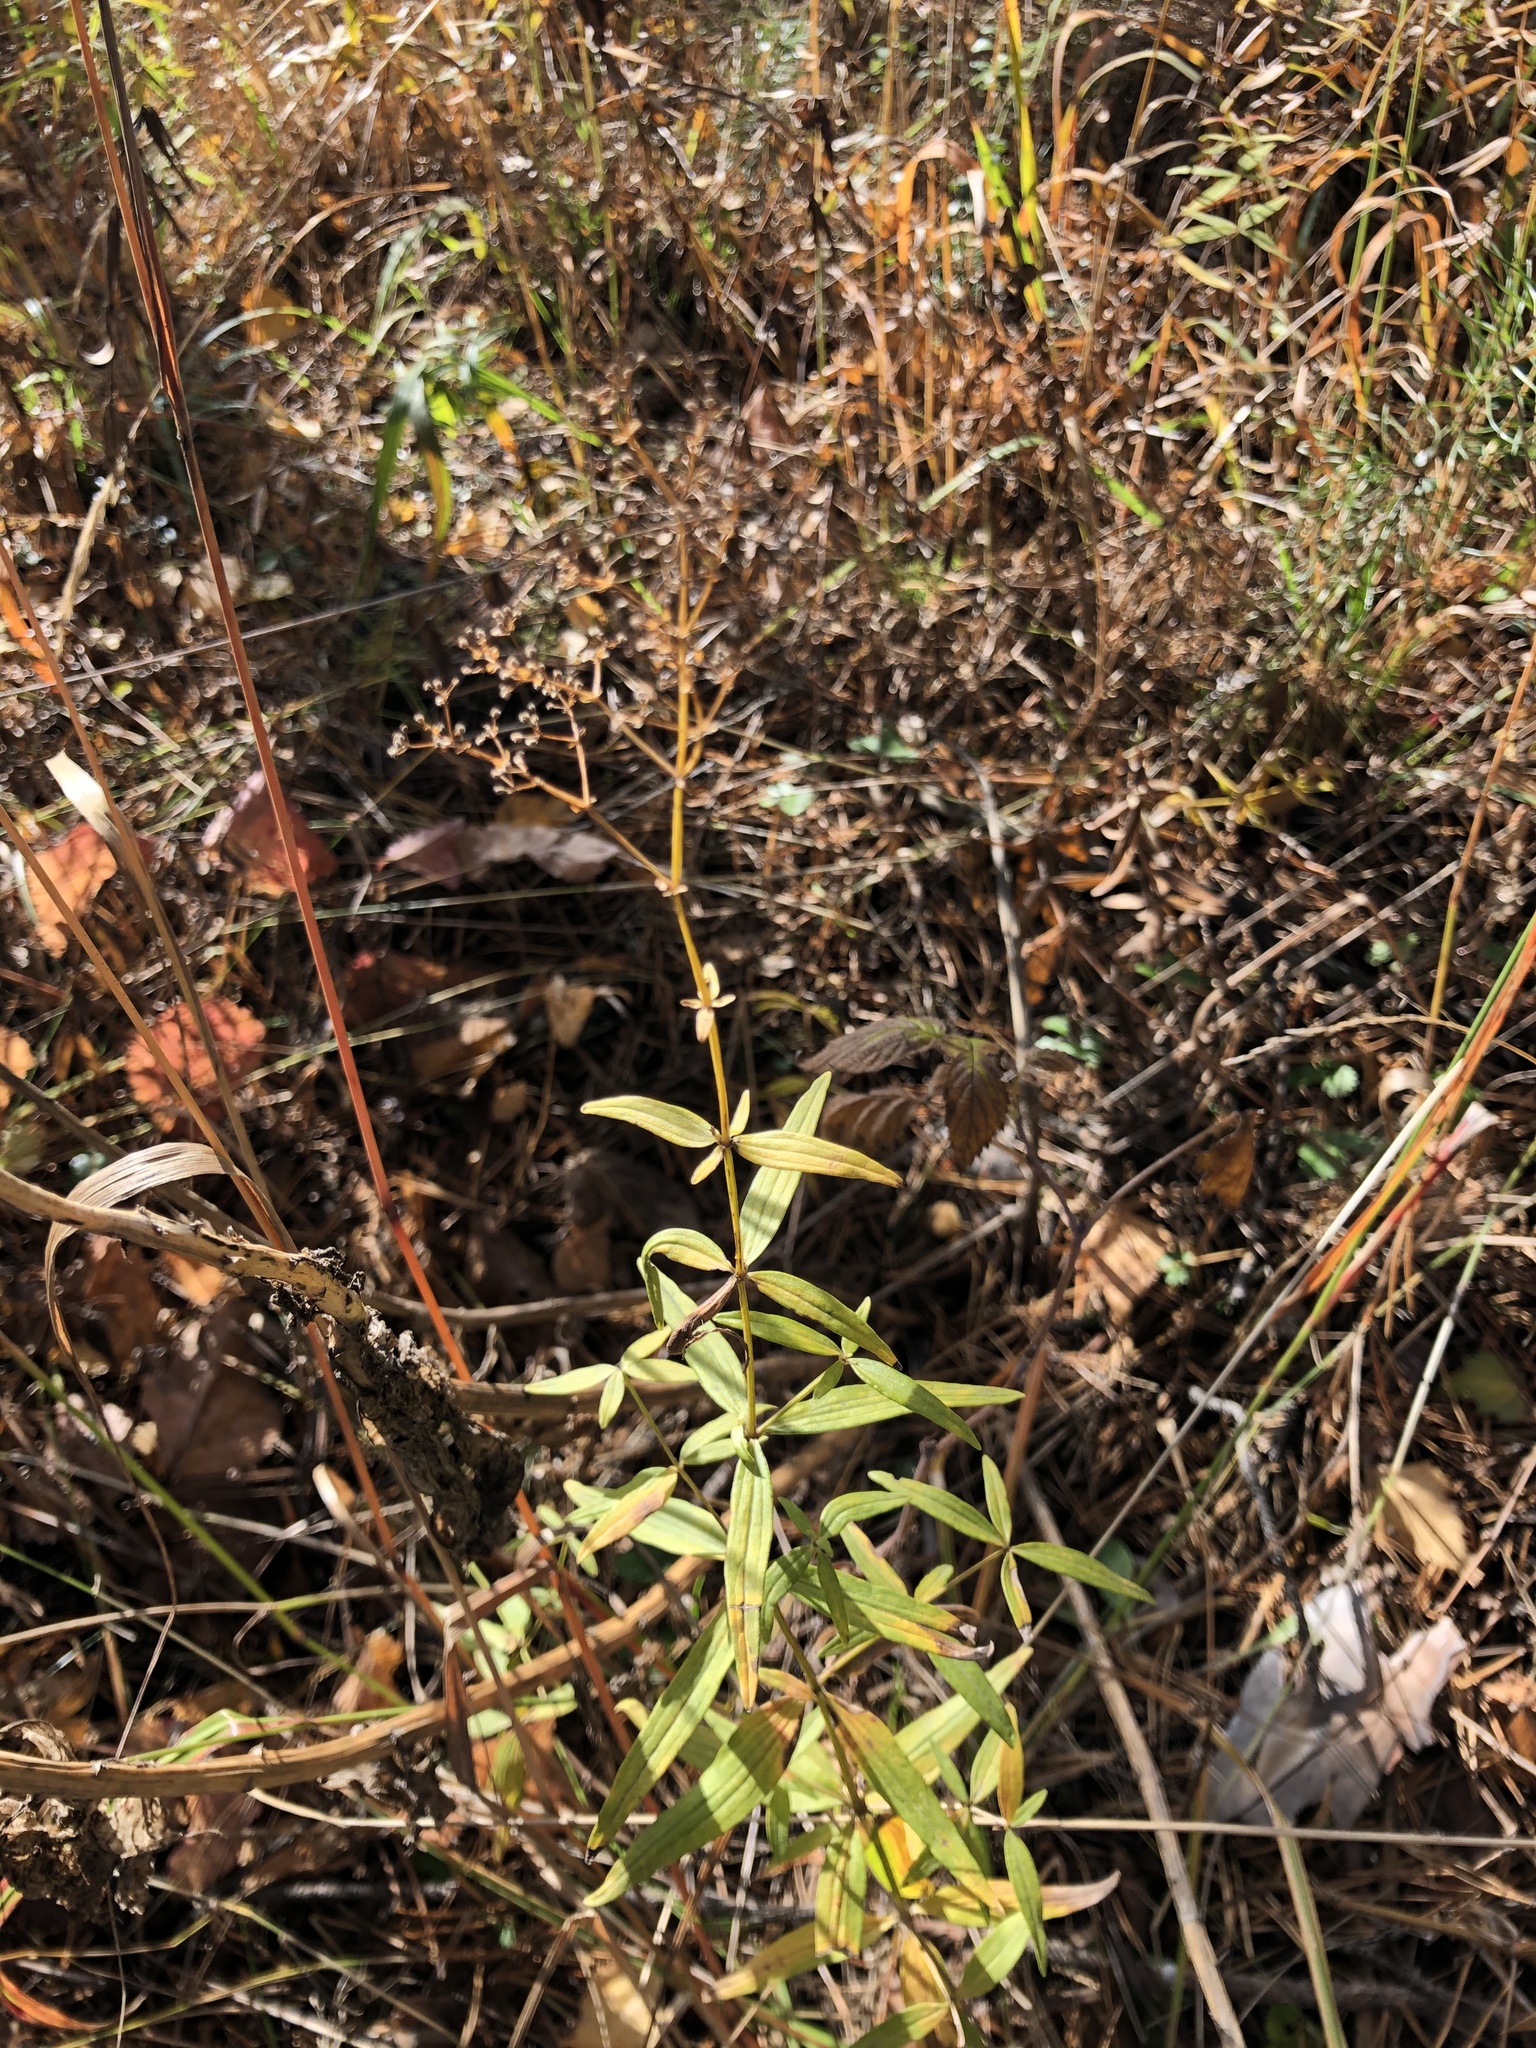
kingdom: Plantae
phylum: Tracheophyta
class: Magnoliopsida
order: Gentianales
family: Rubiaceae
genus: Galium
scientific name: Galium boreale
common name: Northern bedstraw
